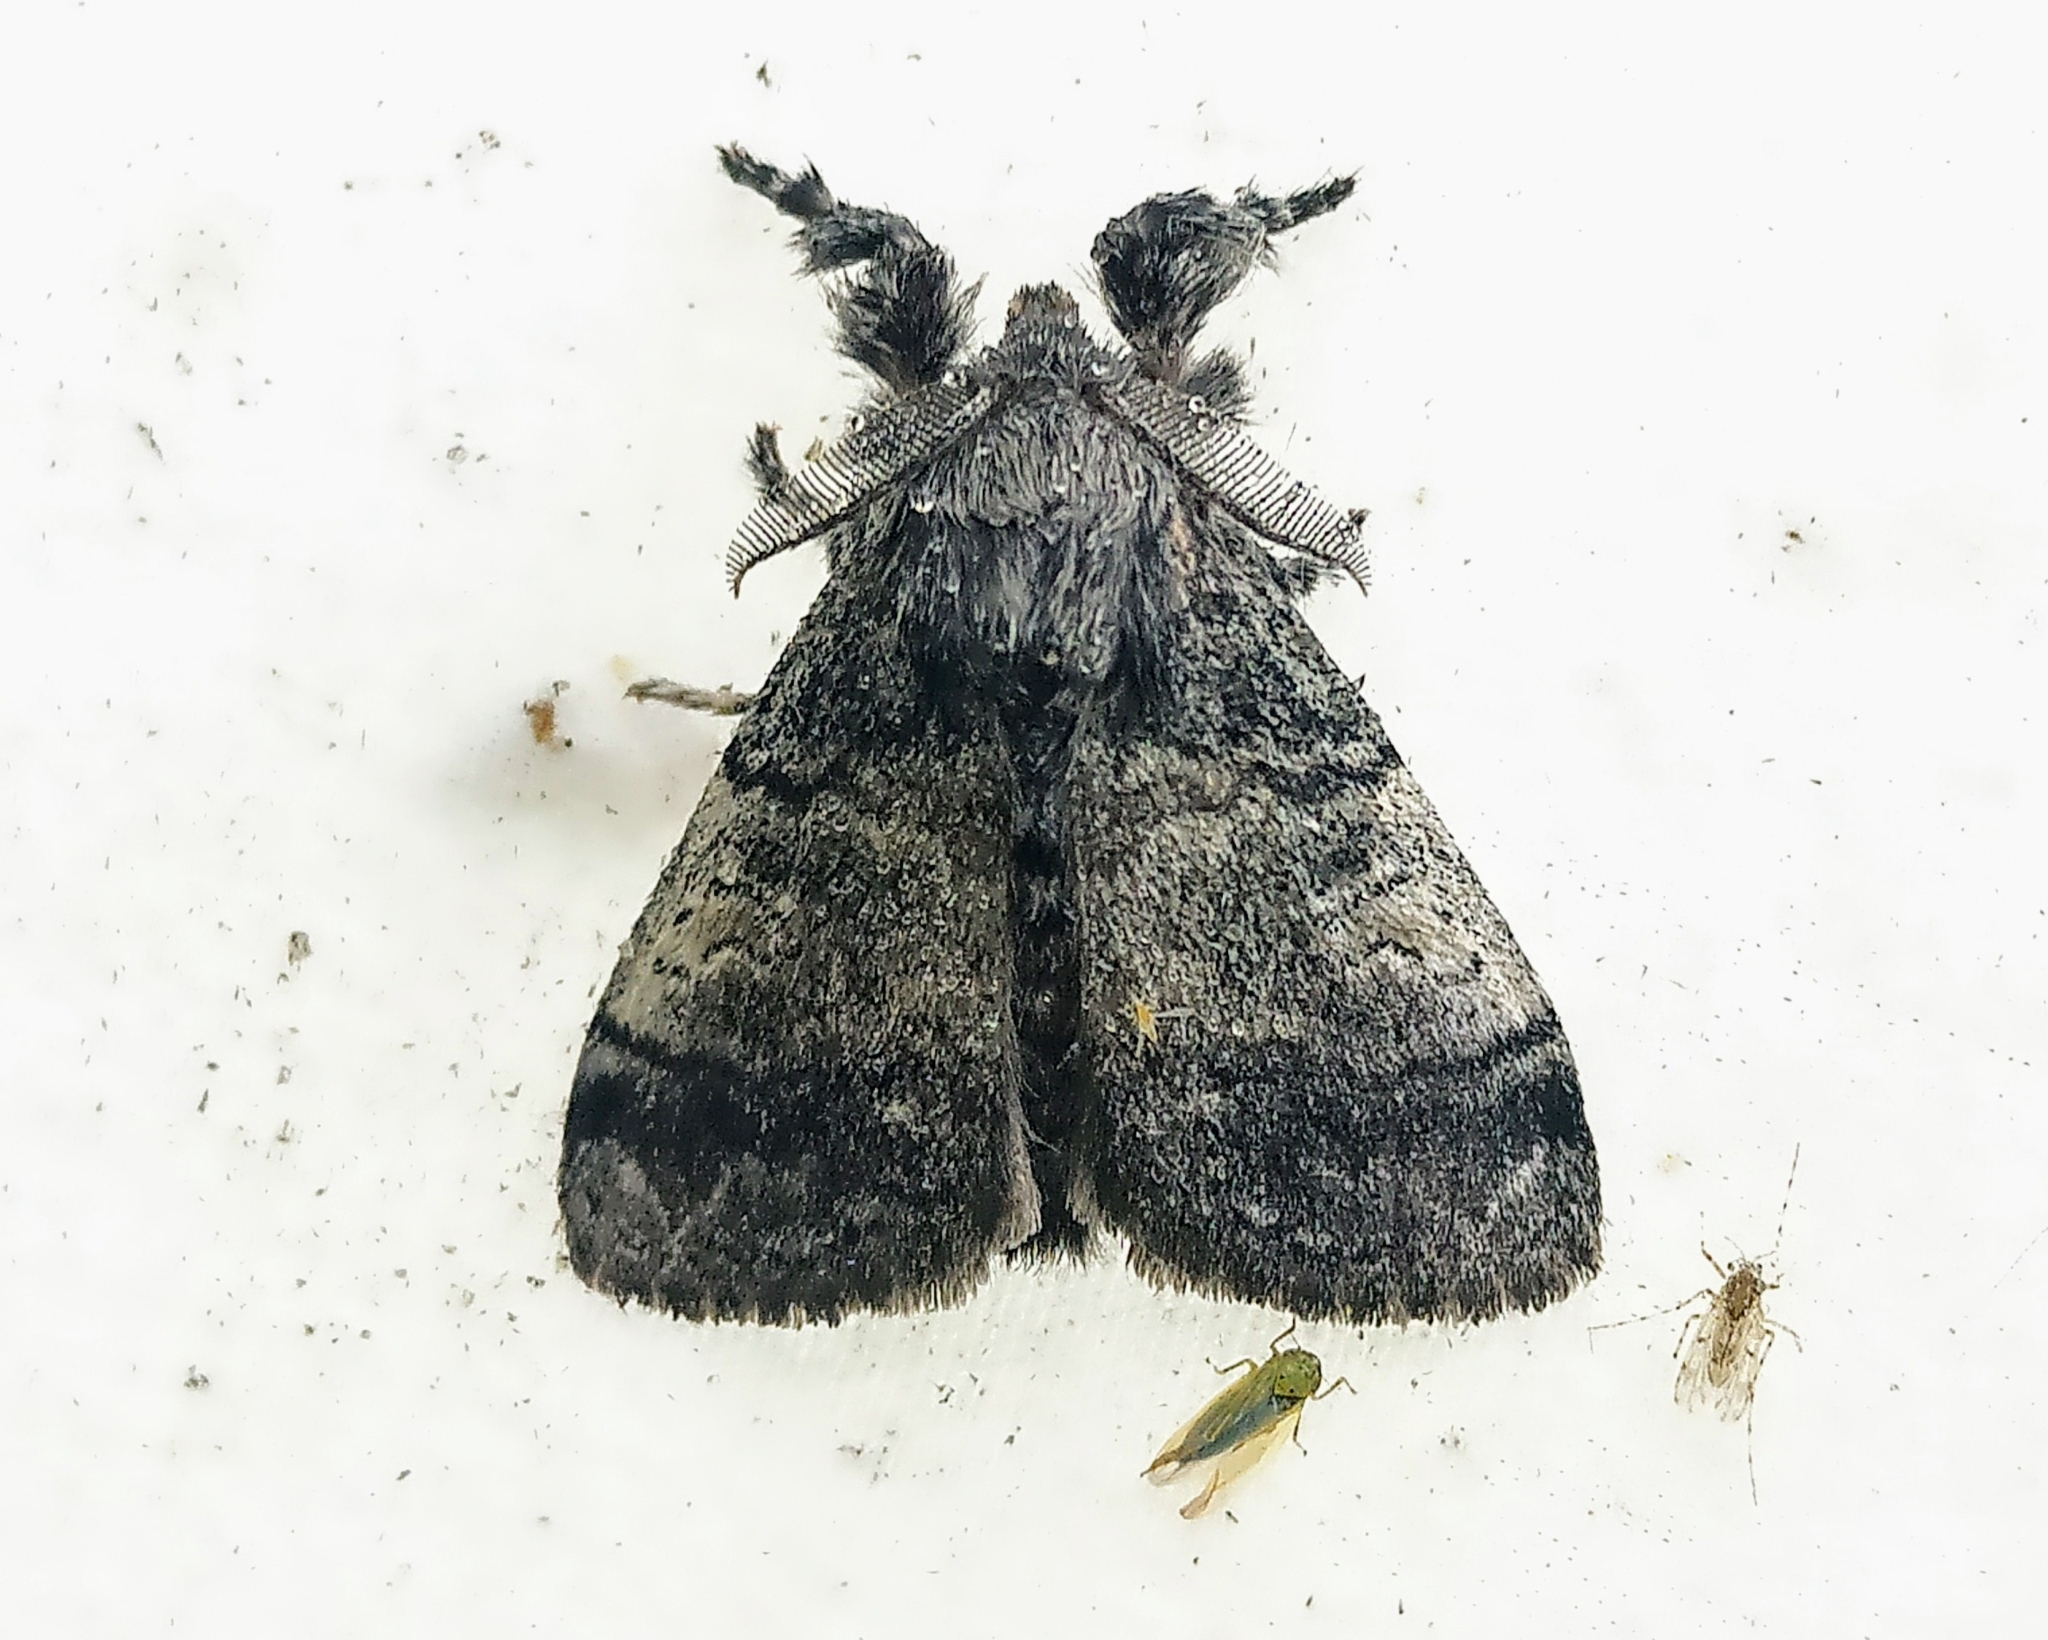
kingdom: Animalia
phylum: Arthropoda
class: Insecta
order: Lepidoptera
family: Erebidae
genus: Dasychira
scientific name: Dasychira vagans
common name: Variable tussock moth
